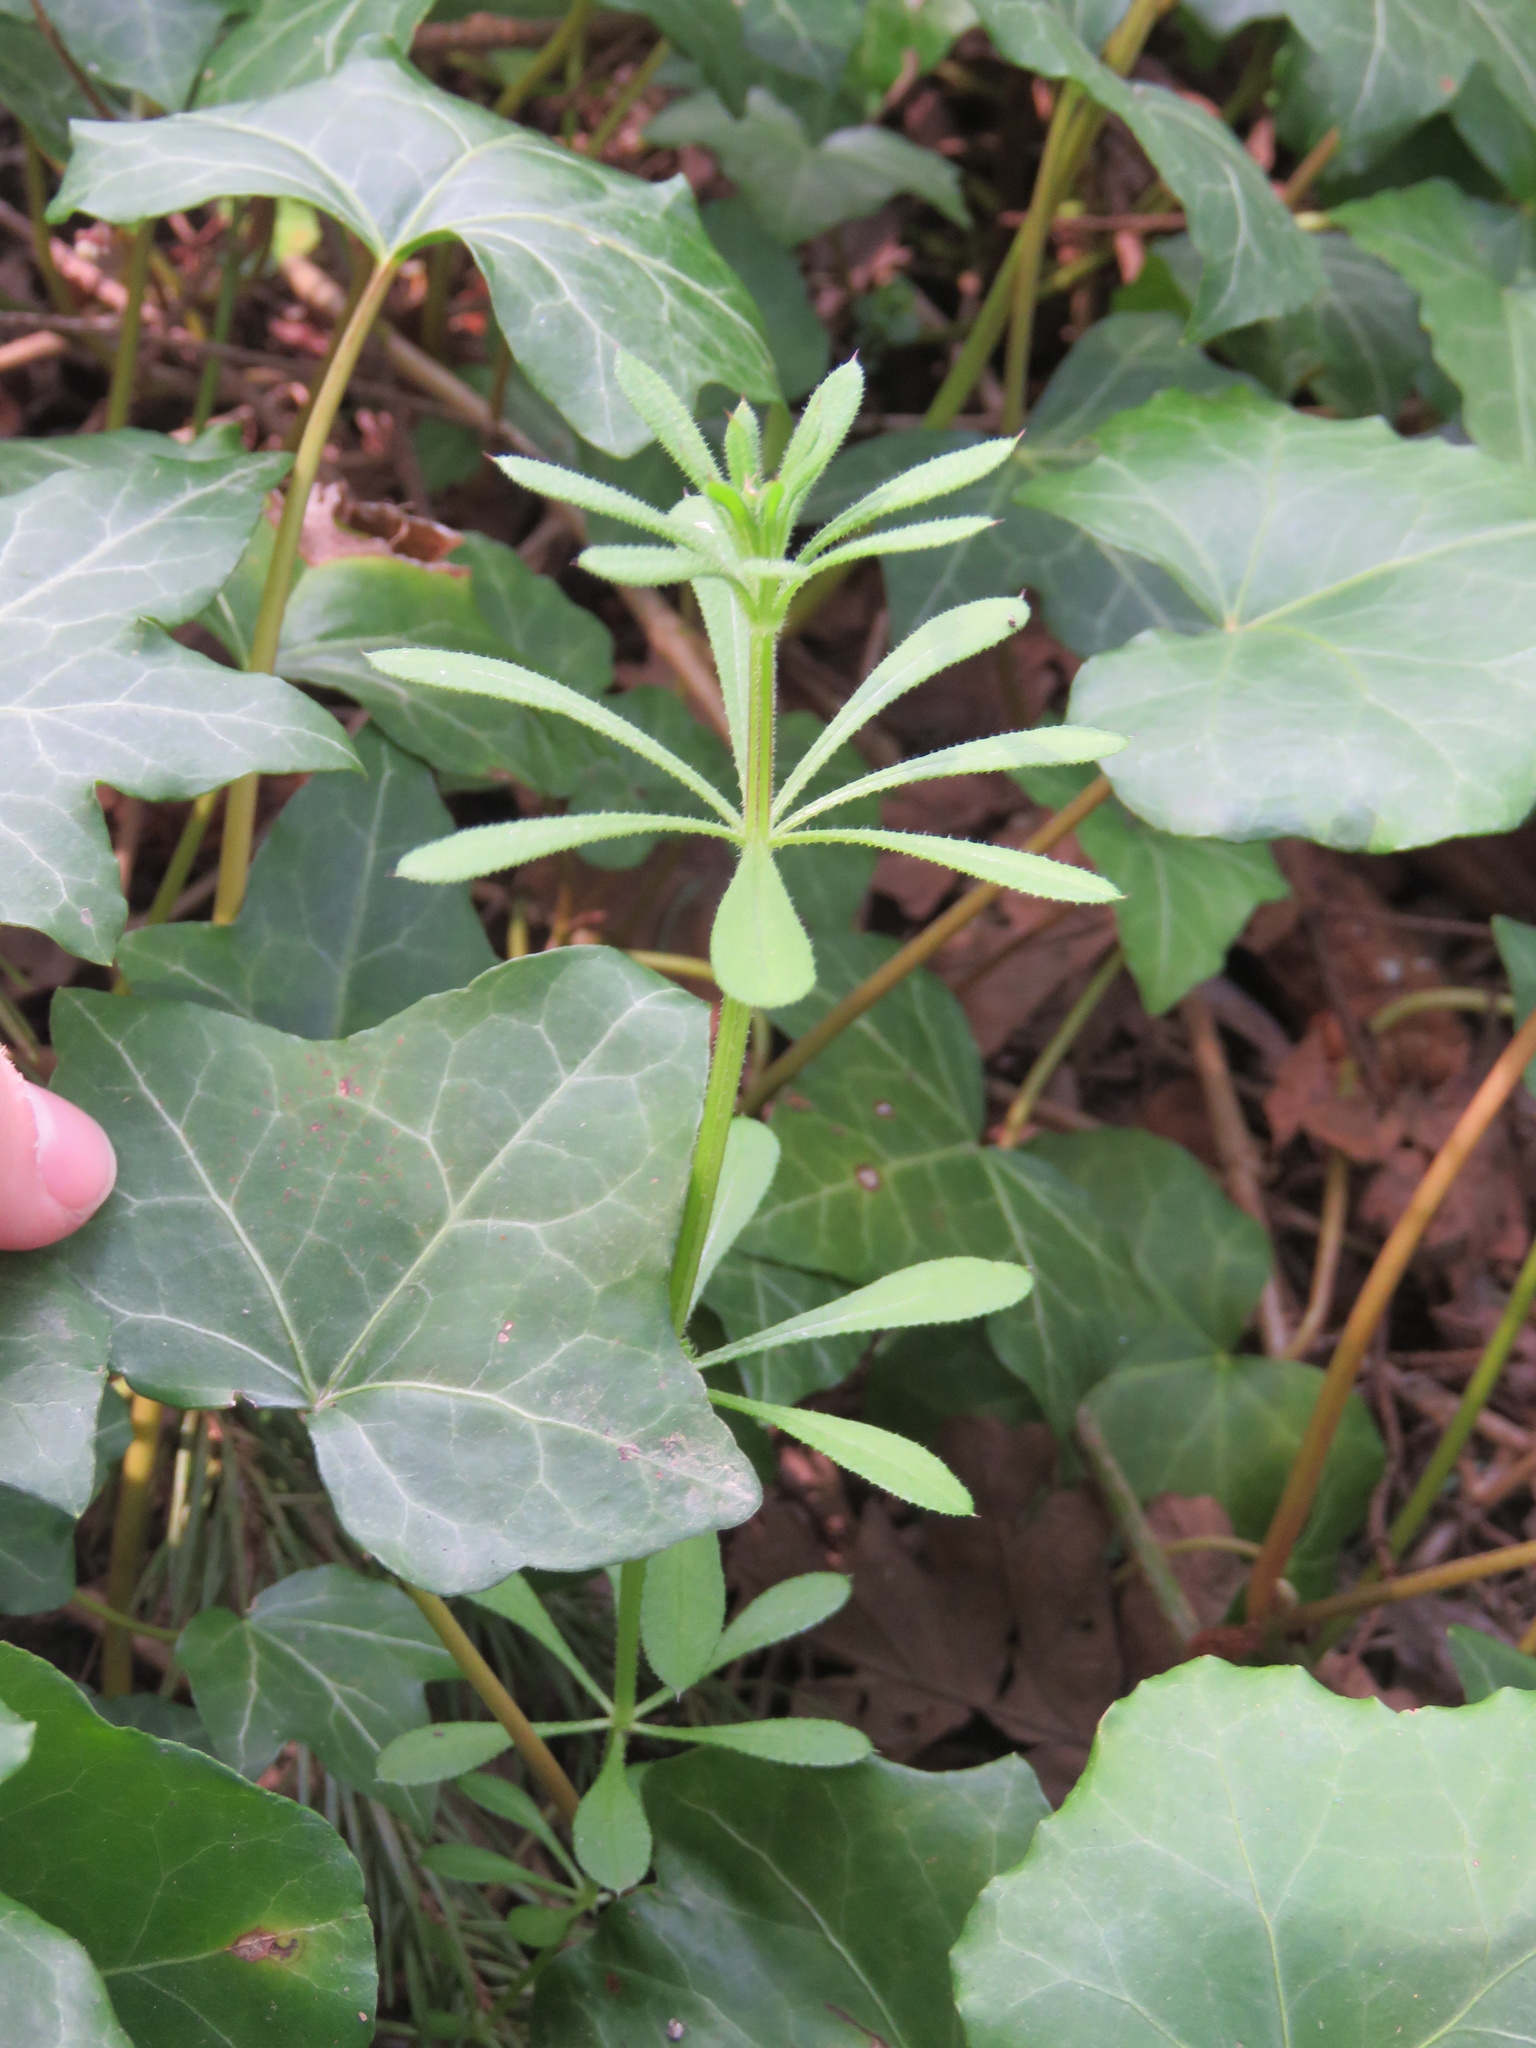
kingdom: Plantae
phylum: Tracheophyta
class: Magnoliopsida
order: Gentianales
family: Rubiaceae
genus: Galium
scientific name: Galium aparine
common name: Cleavers
